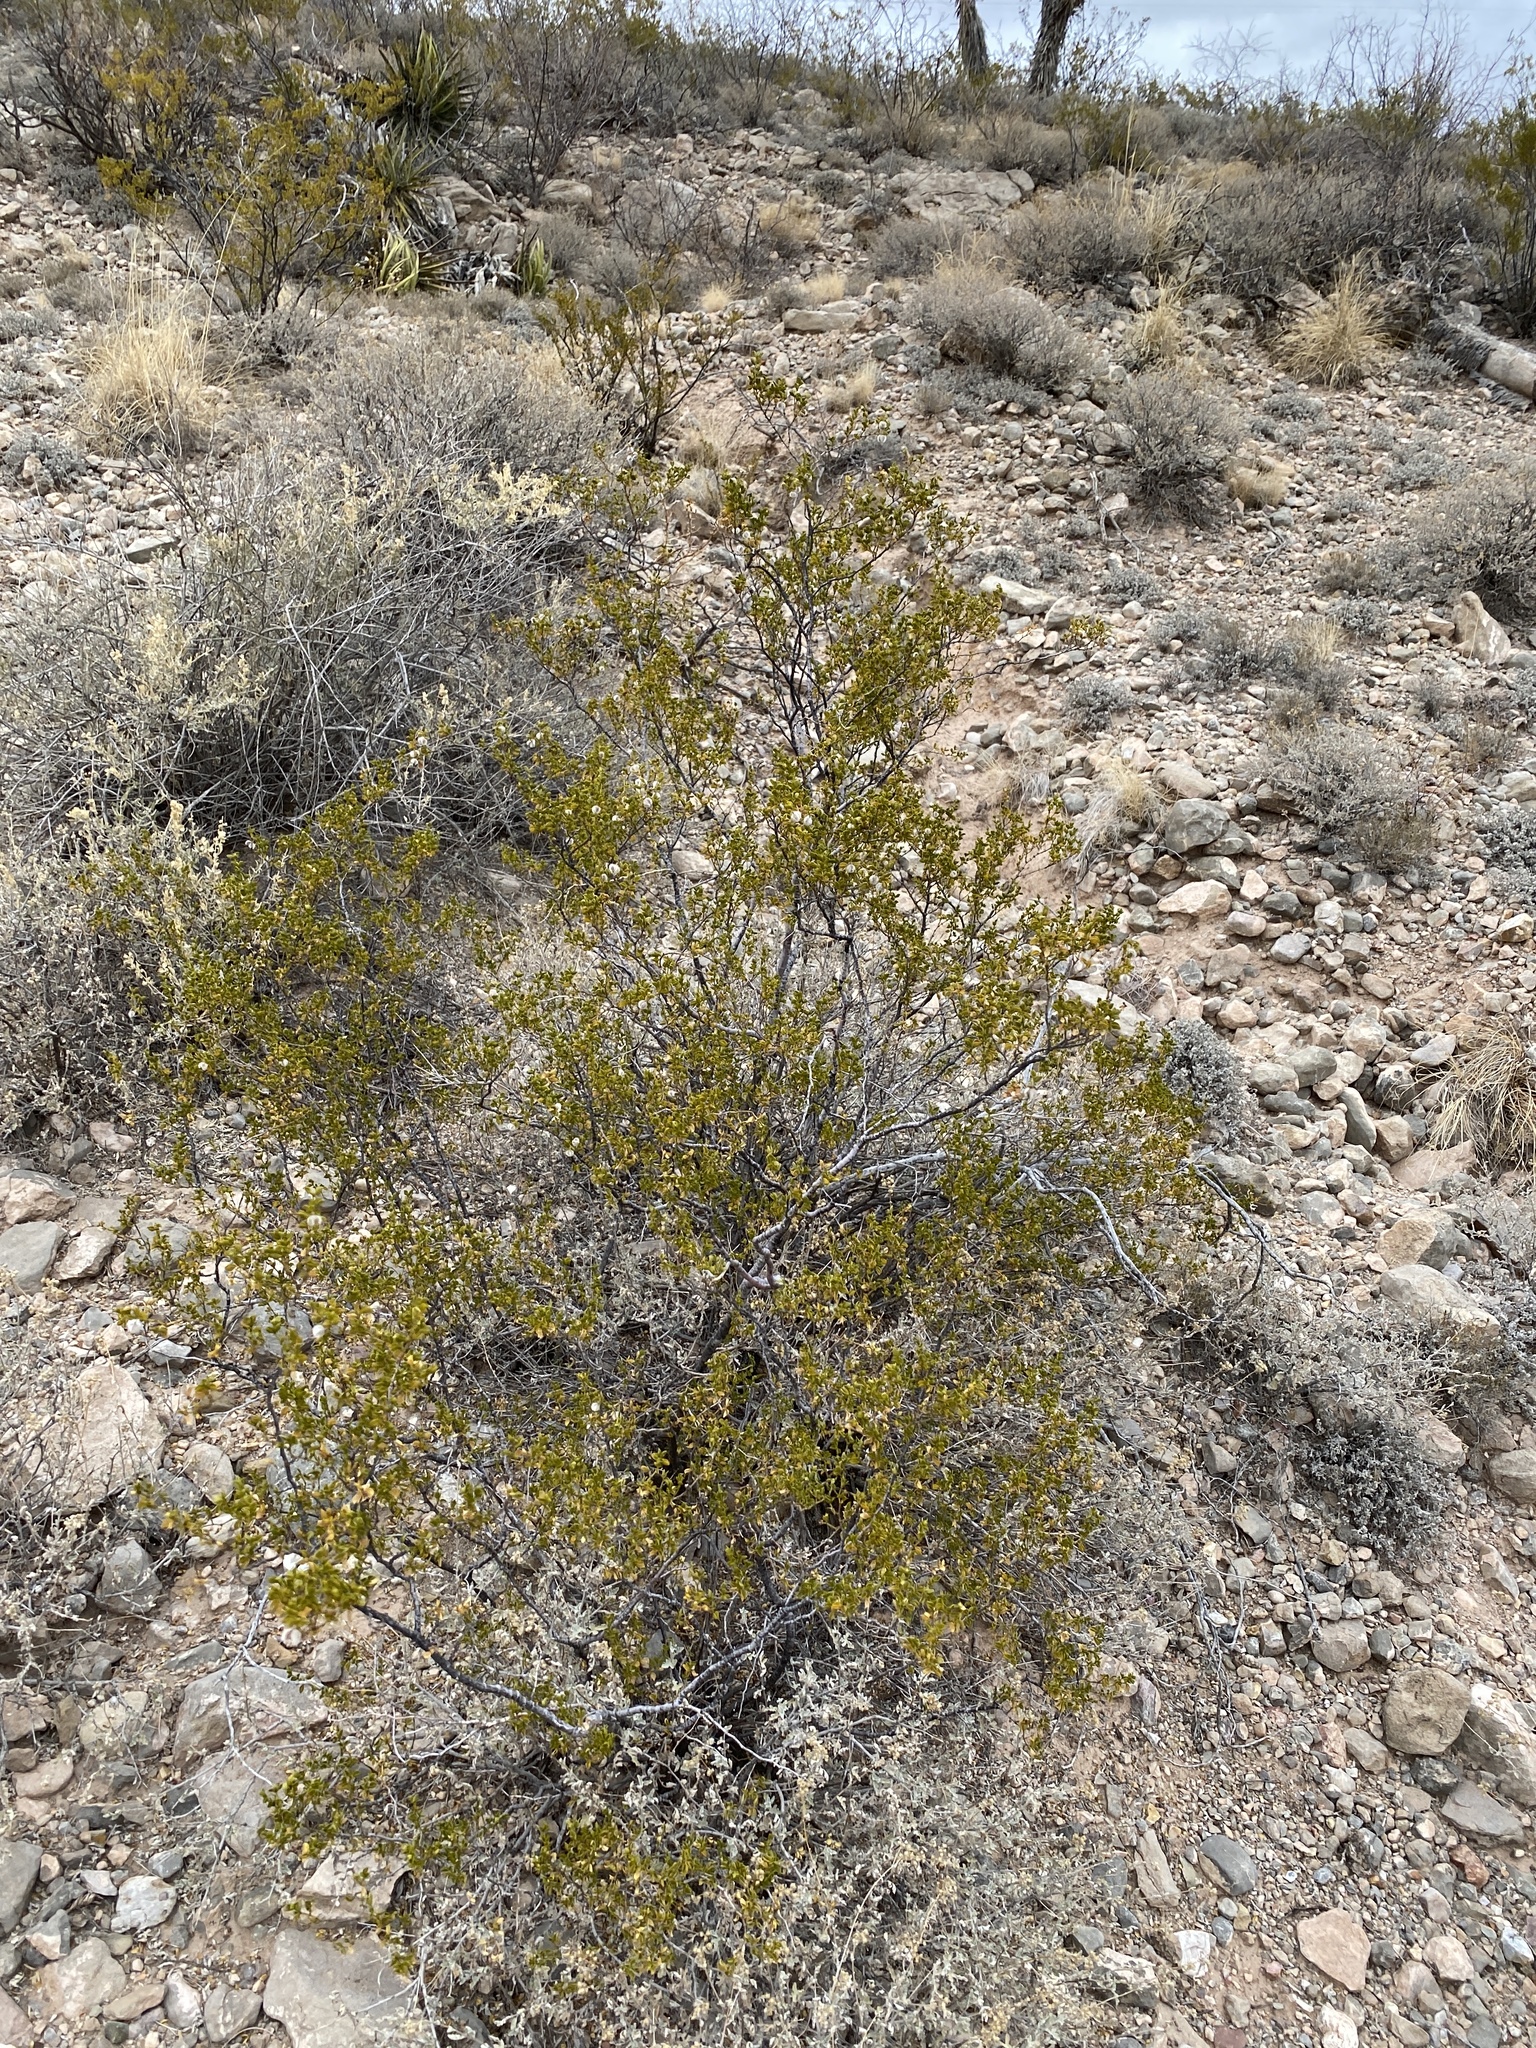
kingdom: Plantae
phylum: Tracheophyta
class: Magnoliopsida
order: Zygophyllales
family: Zygophyllaceae
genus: Larrea
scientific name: Larrea tridentata
